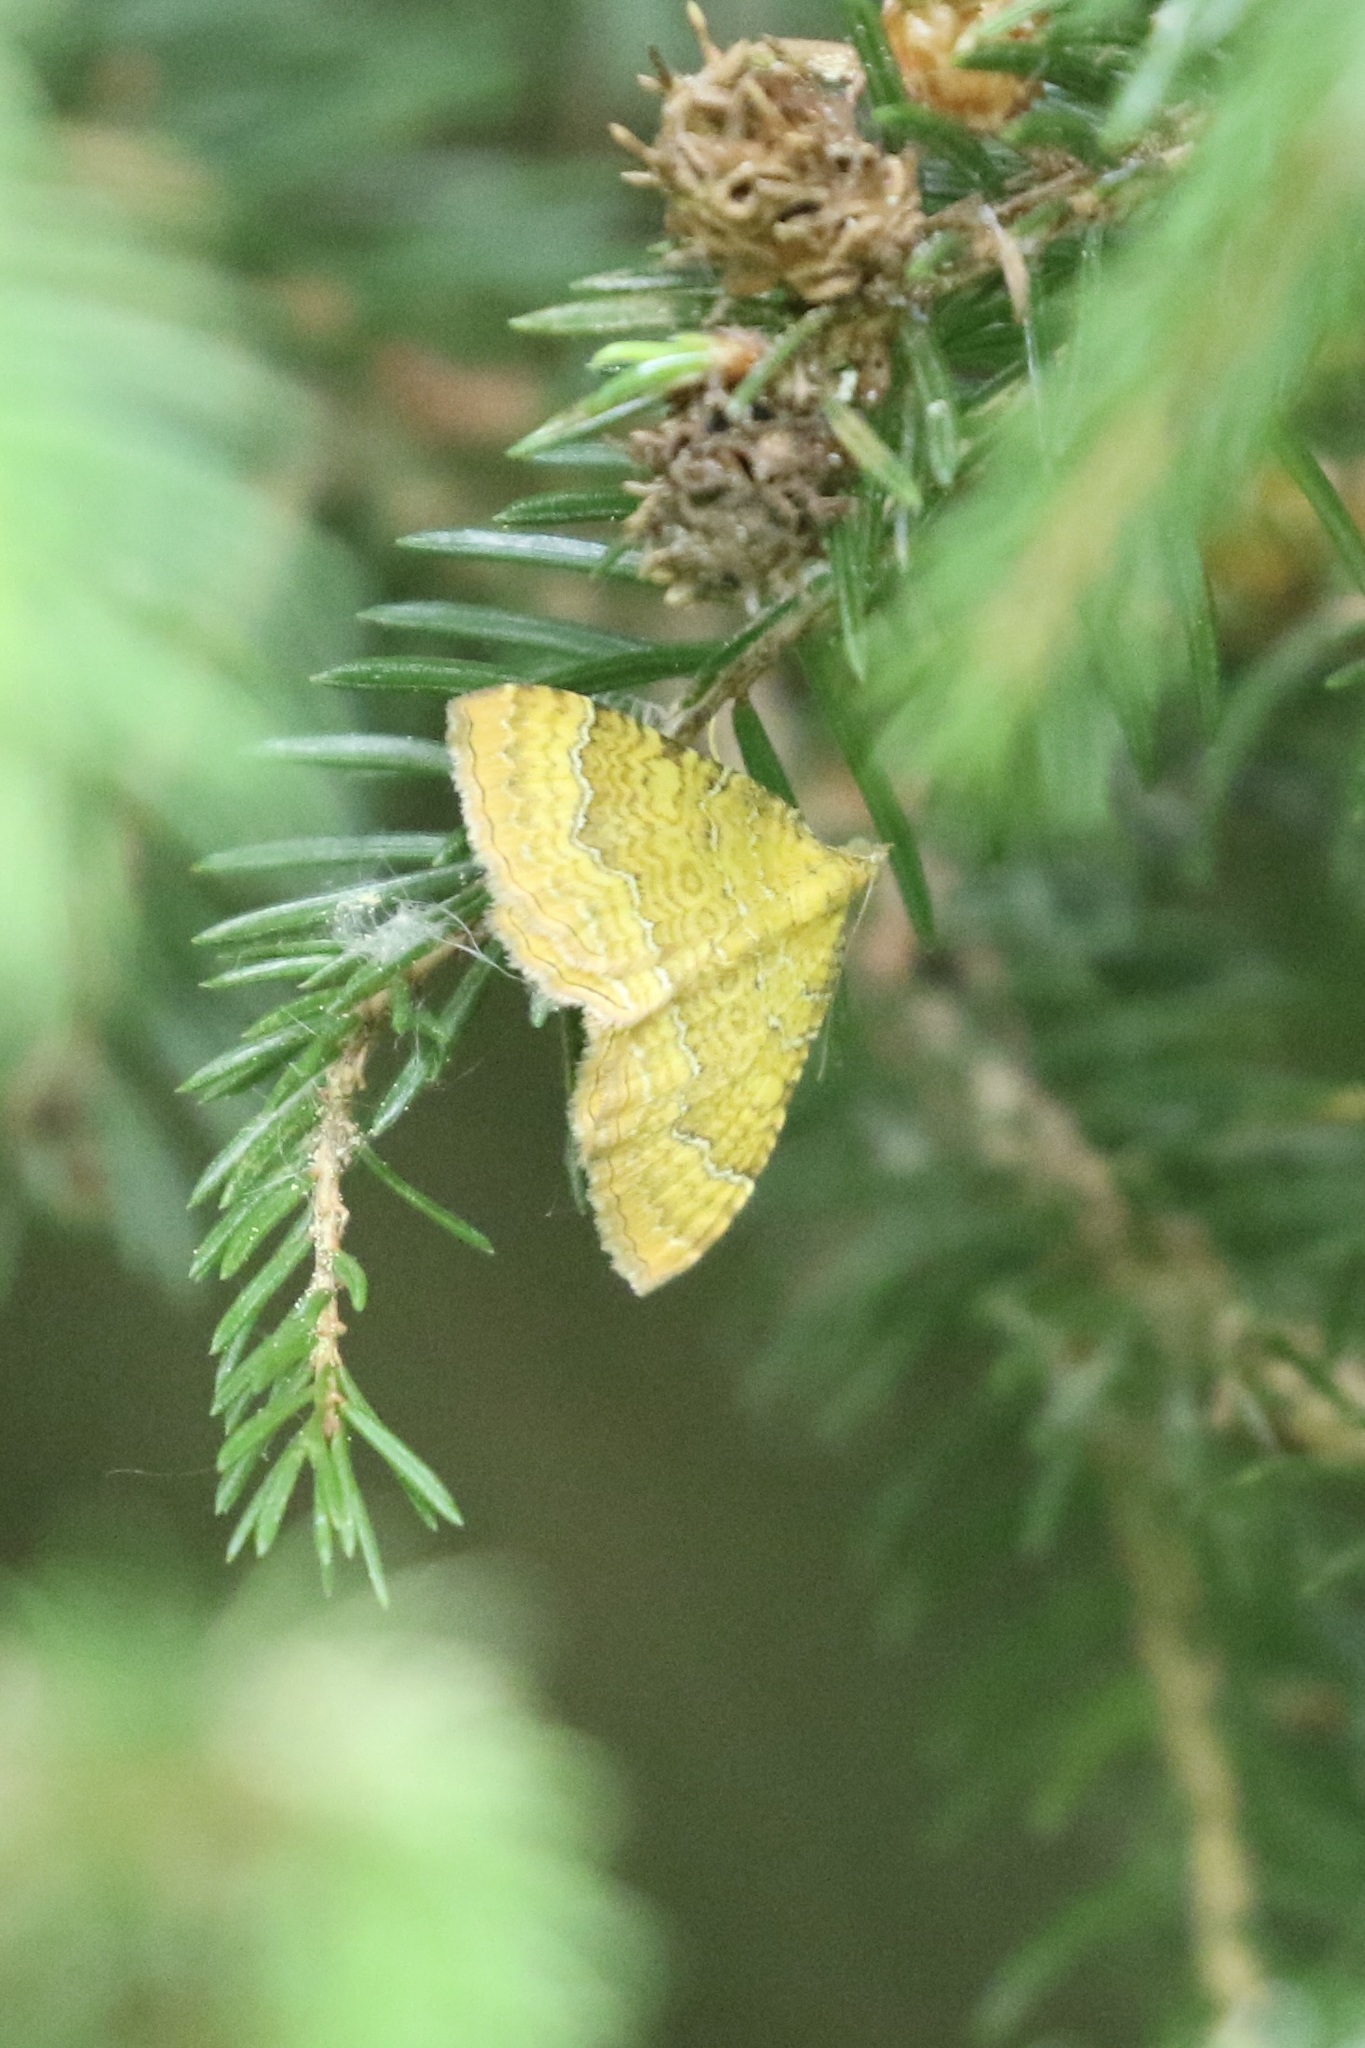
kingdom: Animalia
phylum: Arthropoda
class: Insecta
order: Lepidoptera
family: Geometridae
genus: Camptogramma
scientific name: Camptogramma bilineata
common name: Yellow shell
